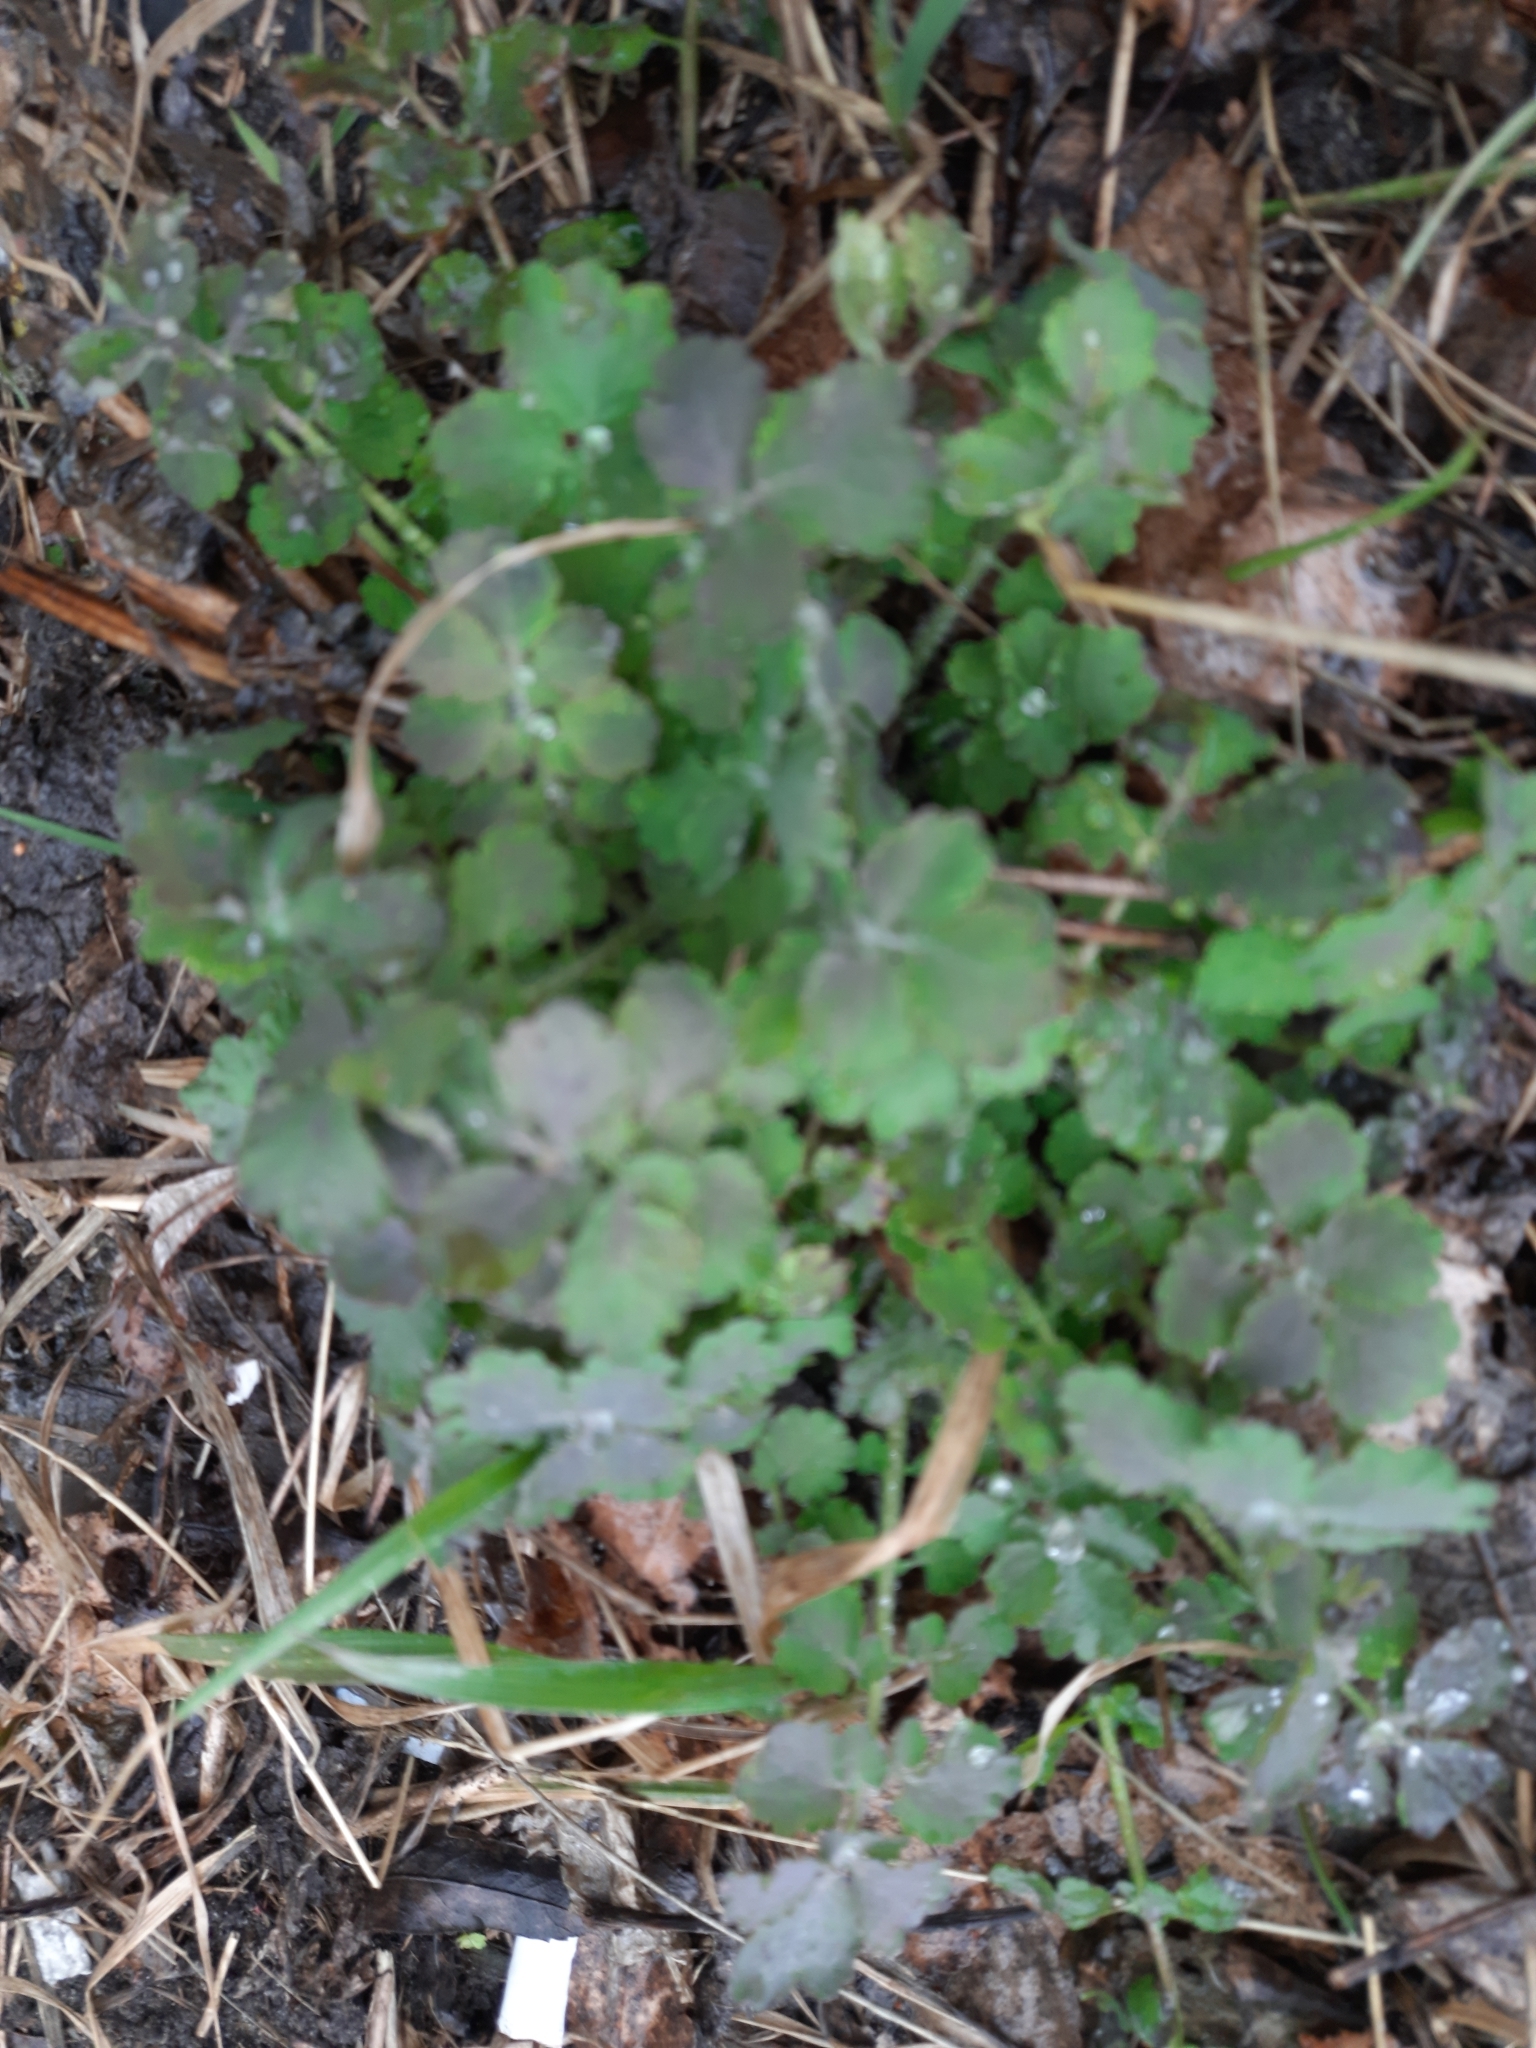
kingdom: Plantae
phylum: Tracheophyta
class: Magnoliopsida
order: Ranunculales
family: Papaveraceae
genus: Chelidonium
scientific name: Chelidonium majus
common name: Greater celandine
